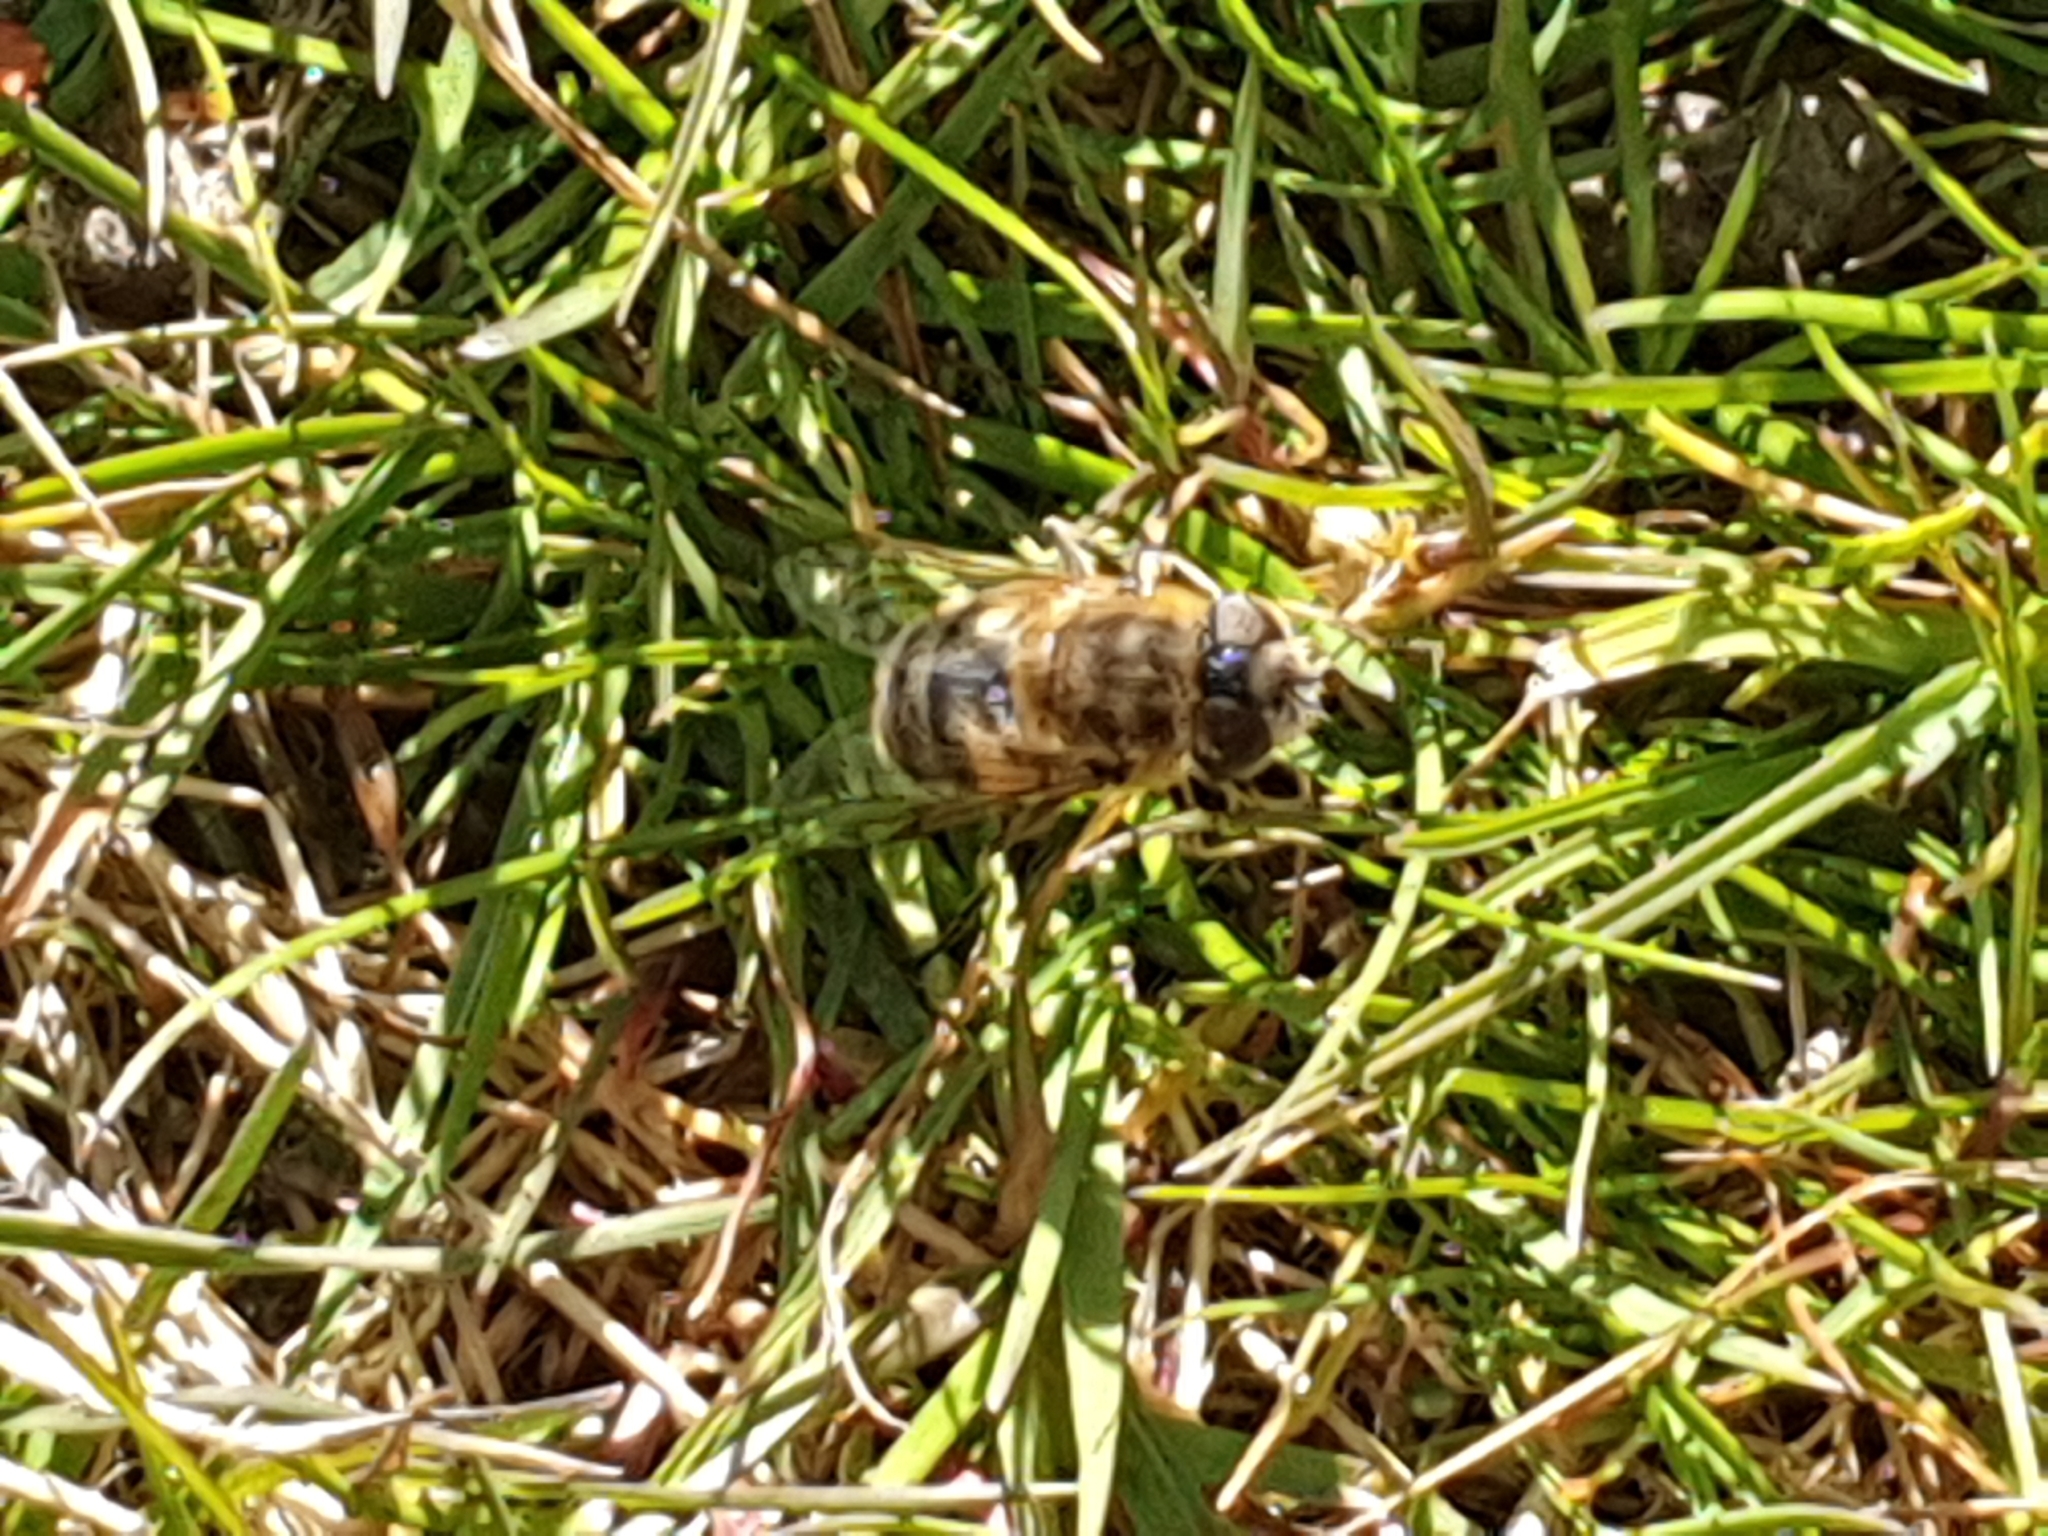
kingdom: Animalia
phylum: Arthropoda
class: Insecta
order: Diptera
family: Syrphidae
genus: Eristalis
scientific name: Eristalis tenax
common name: Drone fly
